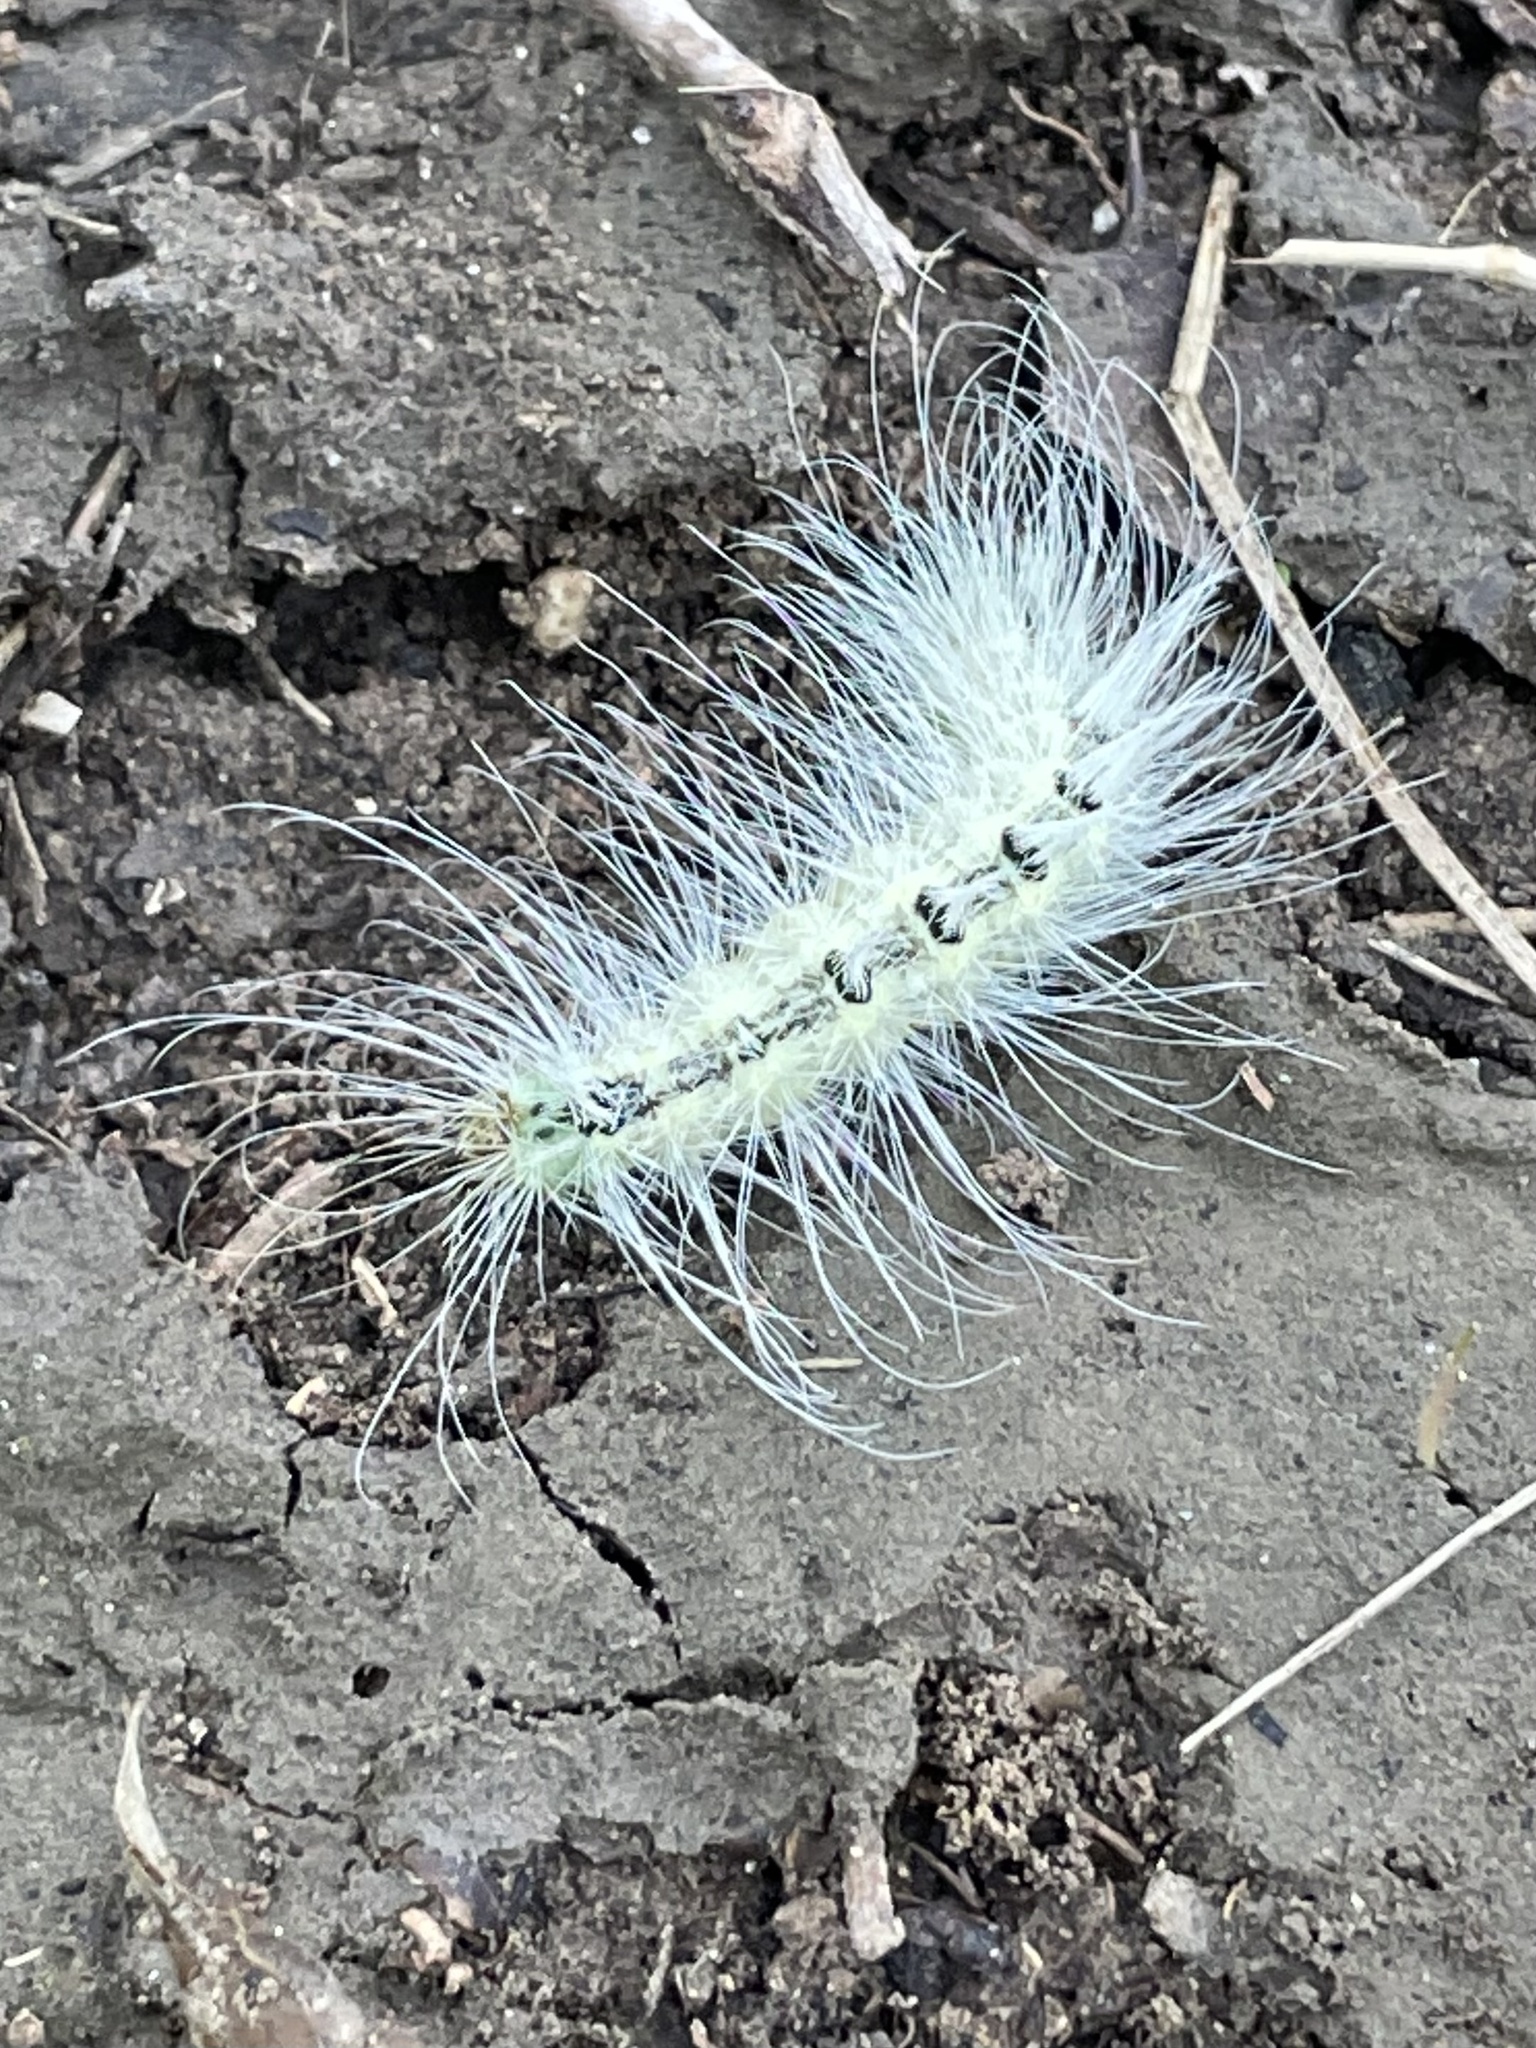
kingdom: Animalia
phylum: Arthropoda
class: Insecta
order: Lepidoptera
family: Noctuidae
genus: Acronicta
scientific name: Acronicta rubricoma
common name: Hackberry dagger
